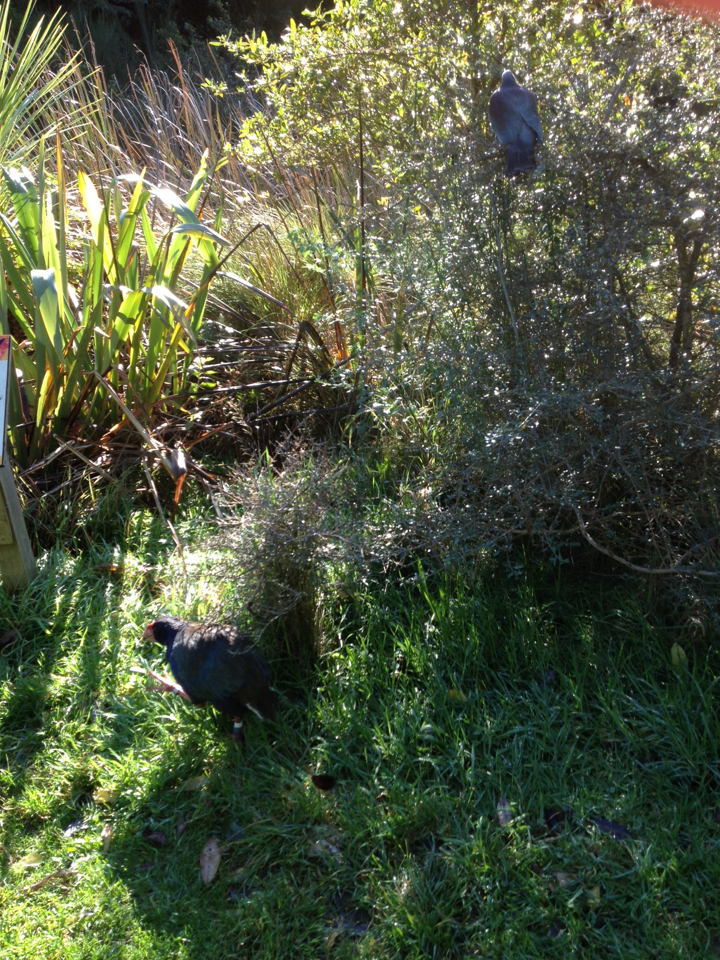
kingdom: Animalia
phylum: Chordata
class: Aves
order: Columbiformes
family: Columbidae
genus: Hemiphaga
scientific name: Hemiphaga novaeseelandiae
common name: New zealand pigeon
